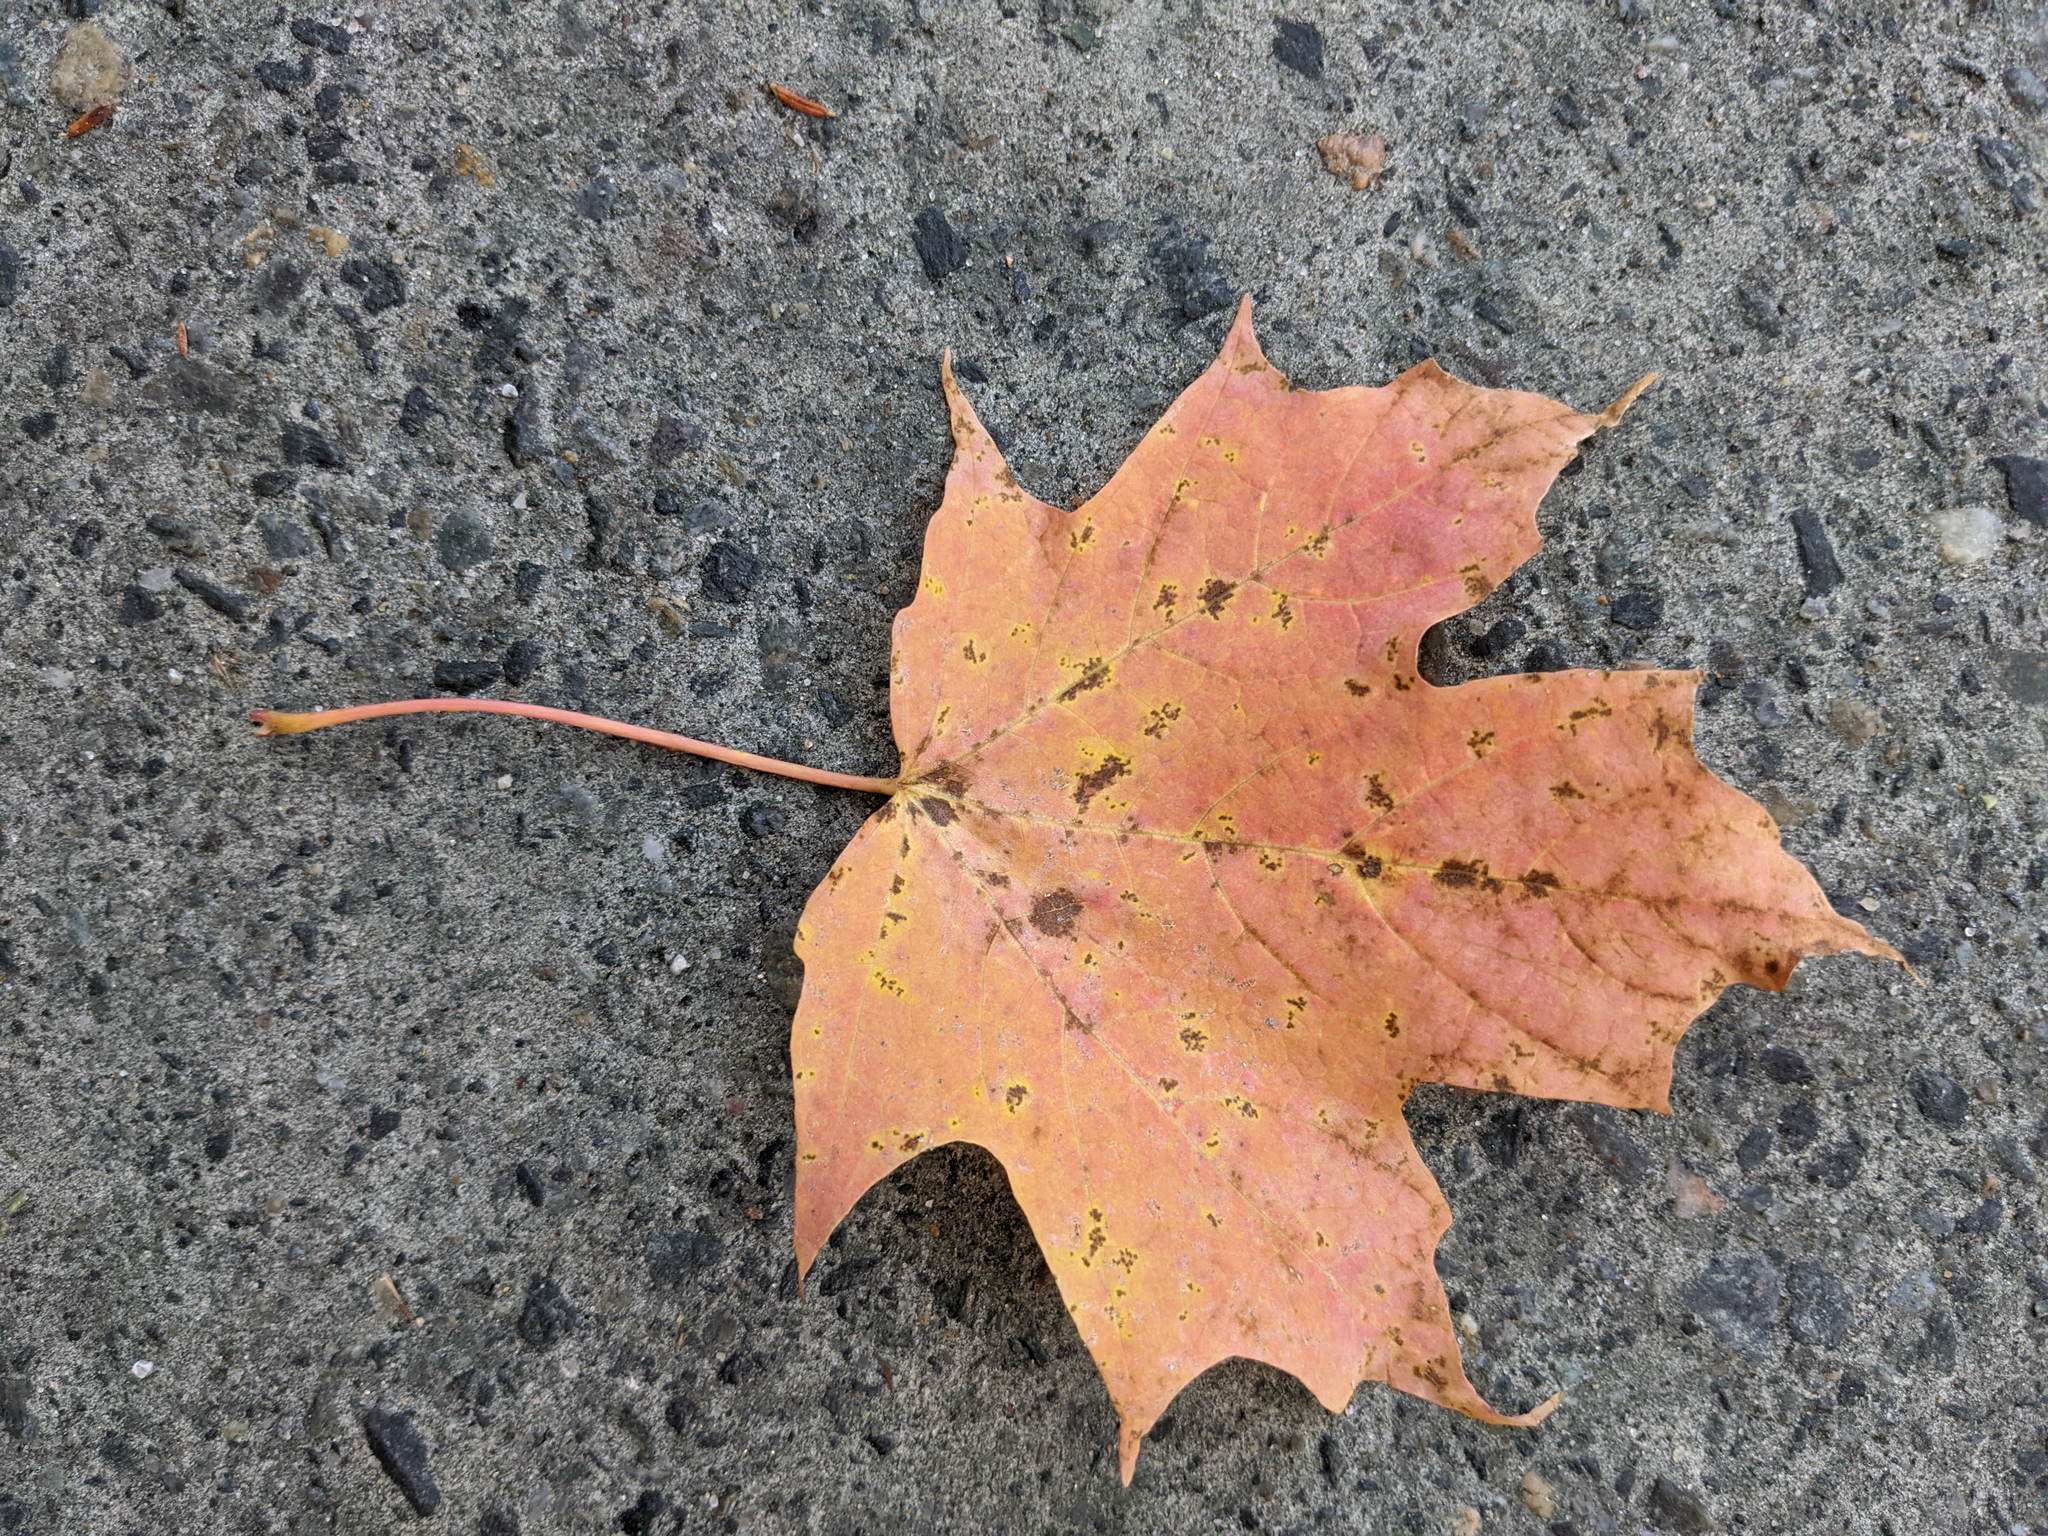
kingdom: Plantae
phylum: Tracheophyta
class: Magnoliopsida
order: Sapindales
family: Sapindaceae
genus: Acer
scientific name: Acer saccharum
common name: Sugar maple
